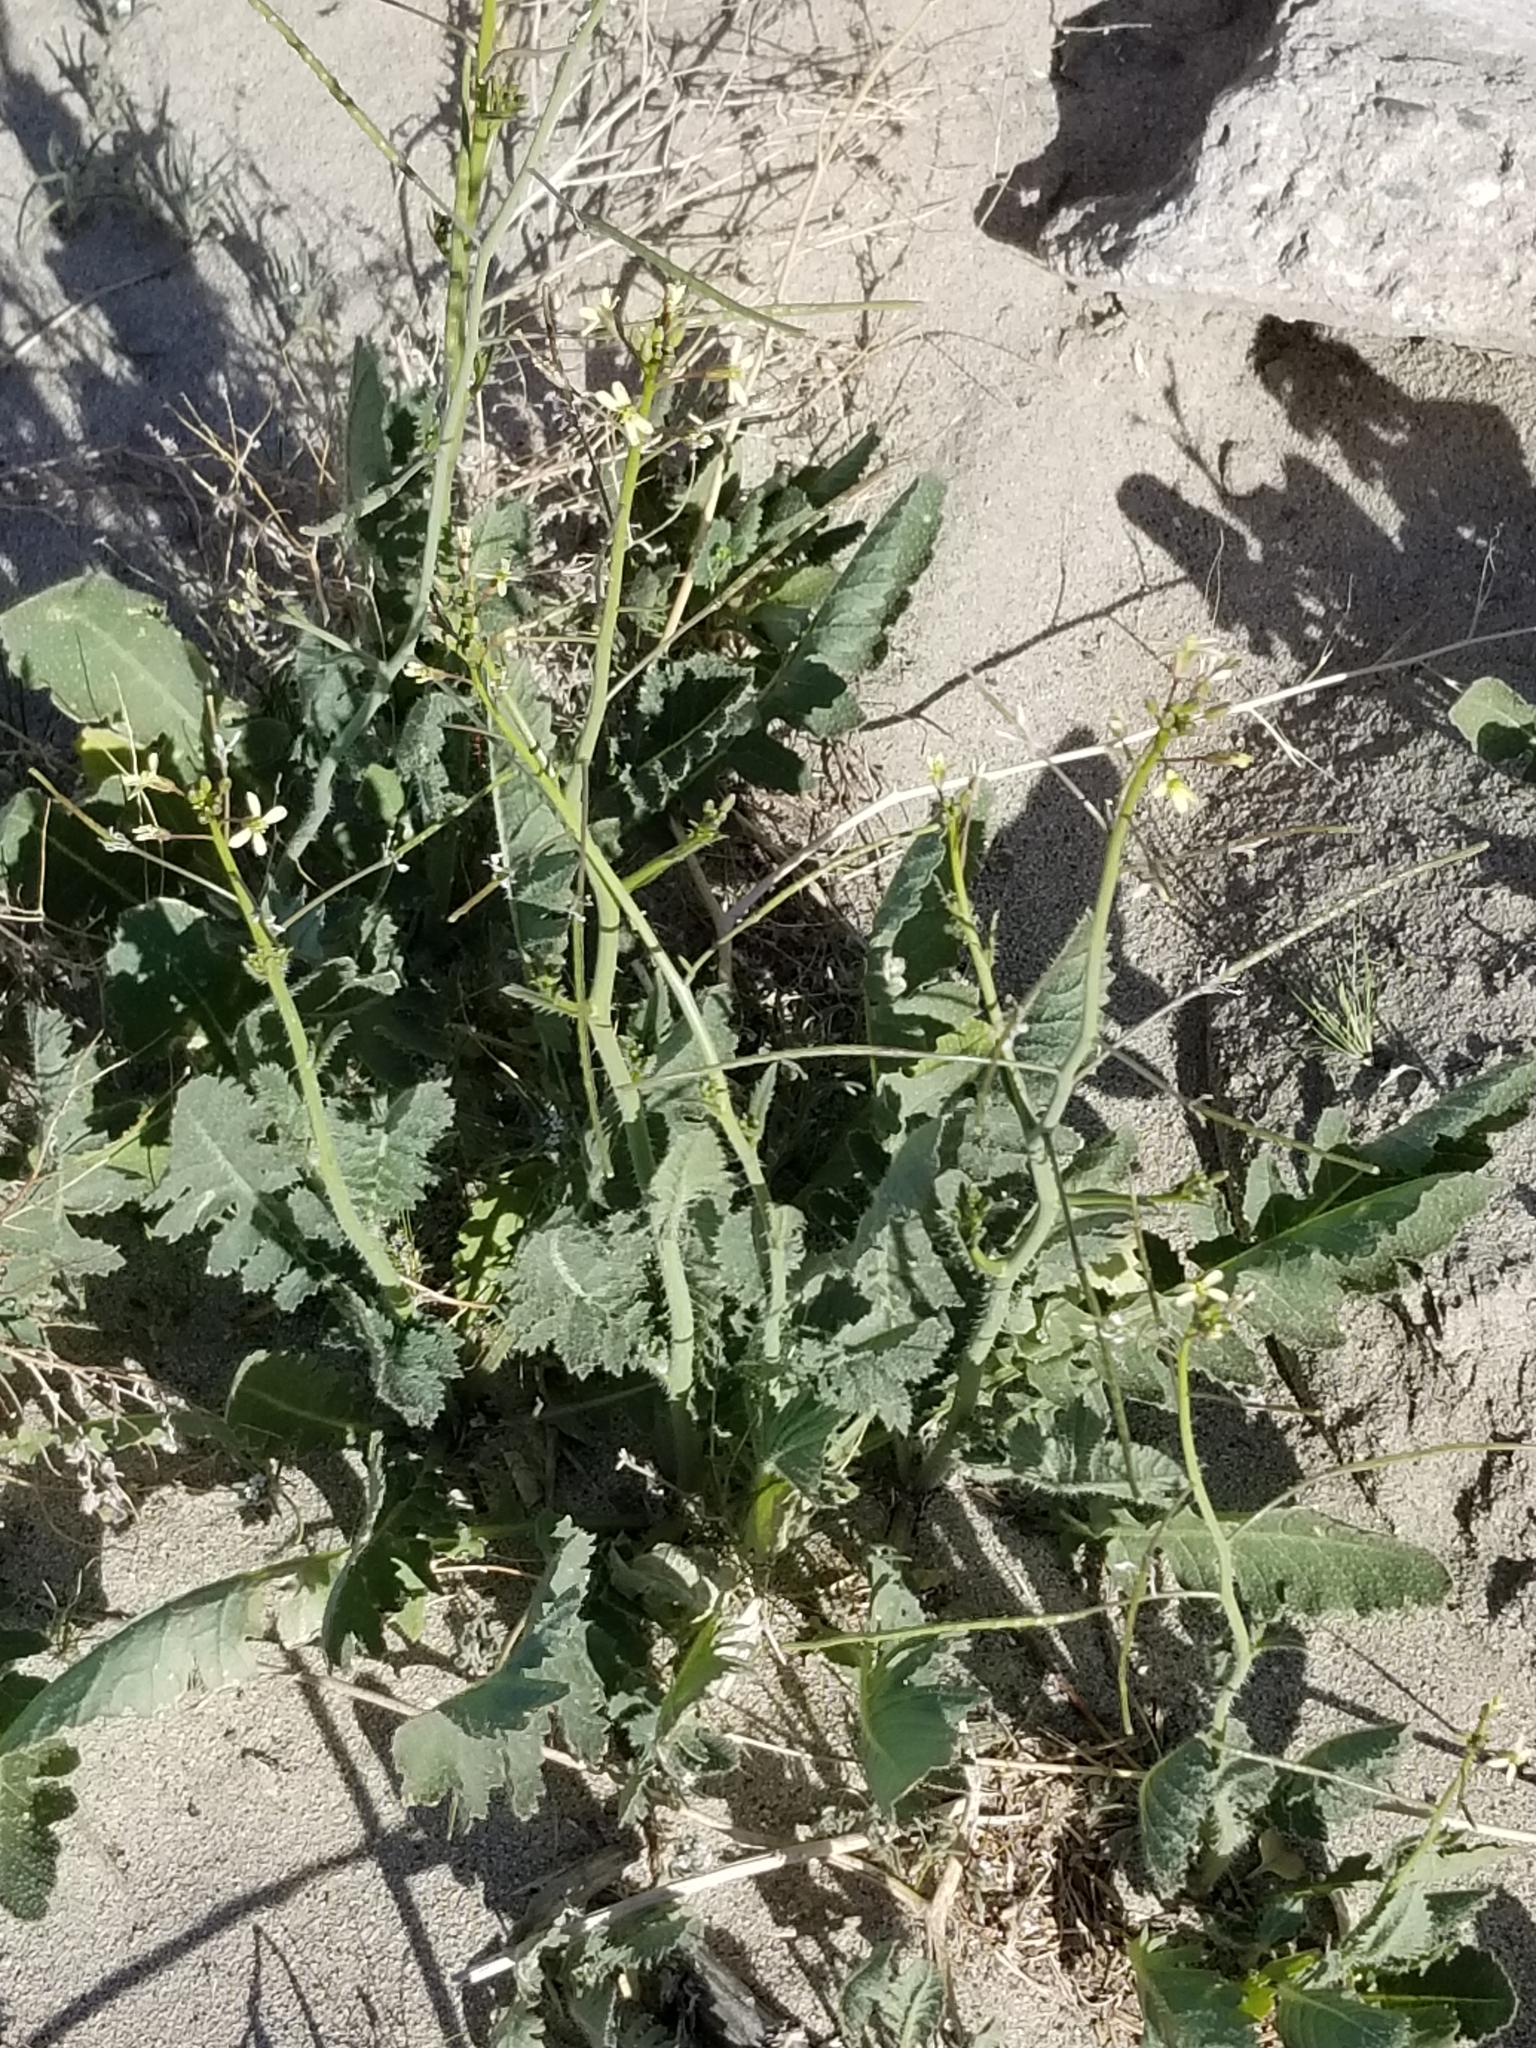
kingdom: Plantae
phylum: Tracheophyta
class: Magnoliopsida
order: Brassicales
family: Brassicaceae
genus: Brassica
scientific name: Brassica tournefortii
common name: Pale cabbage
